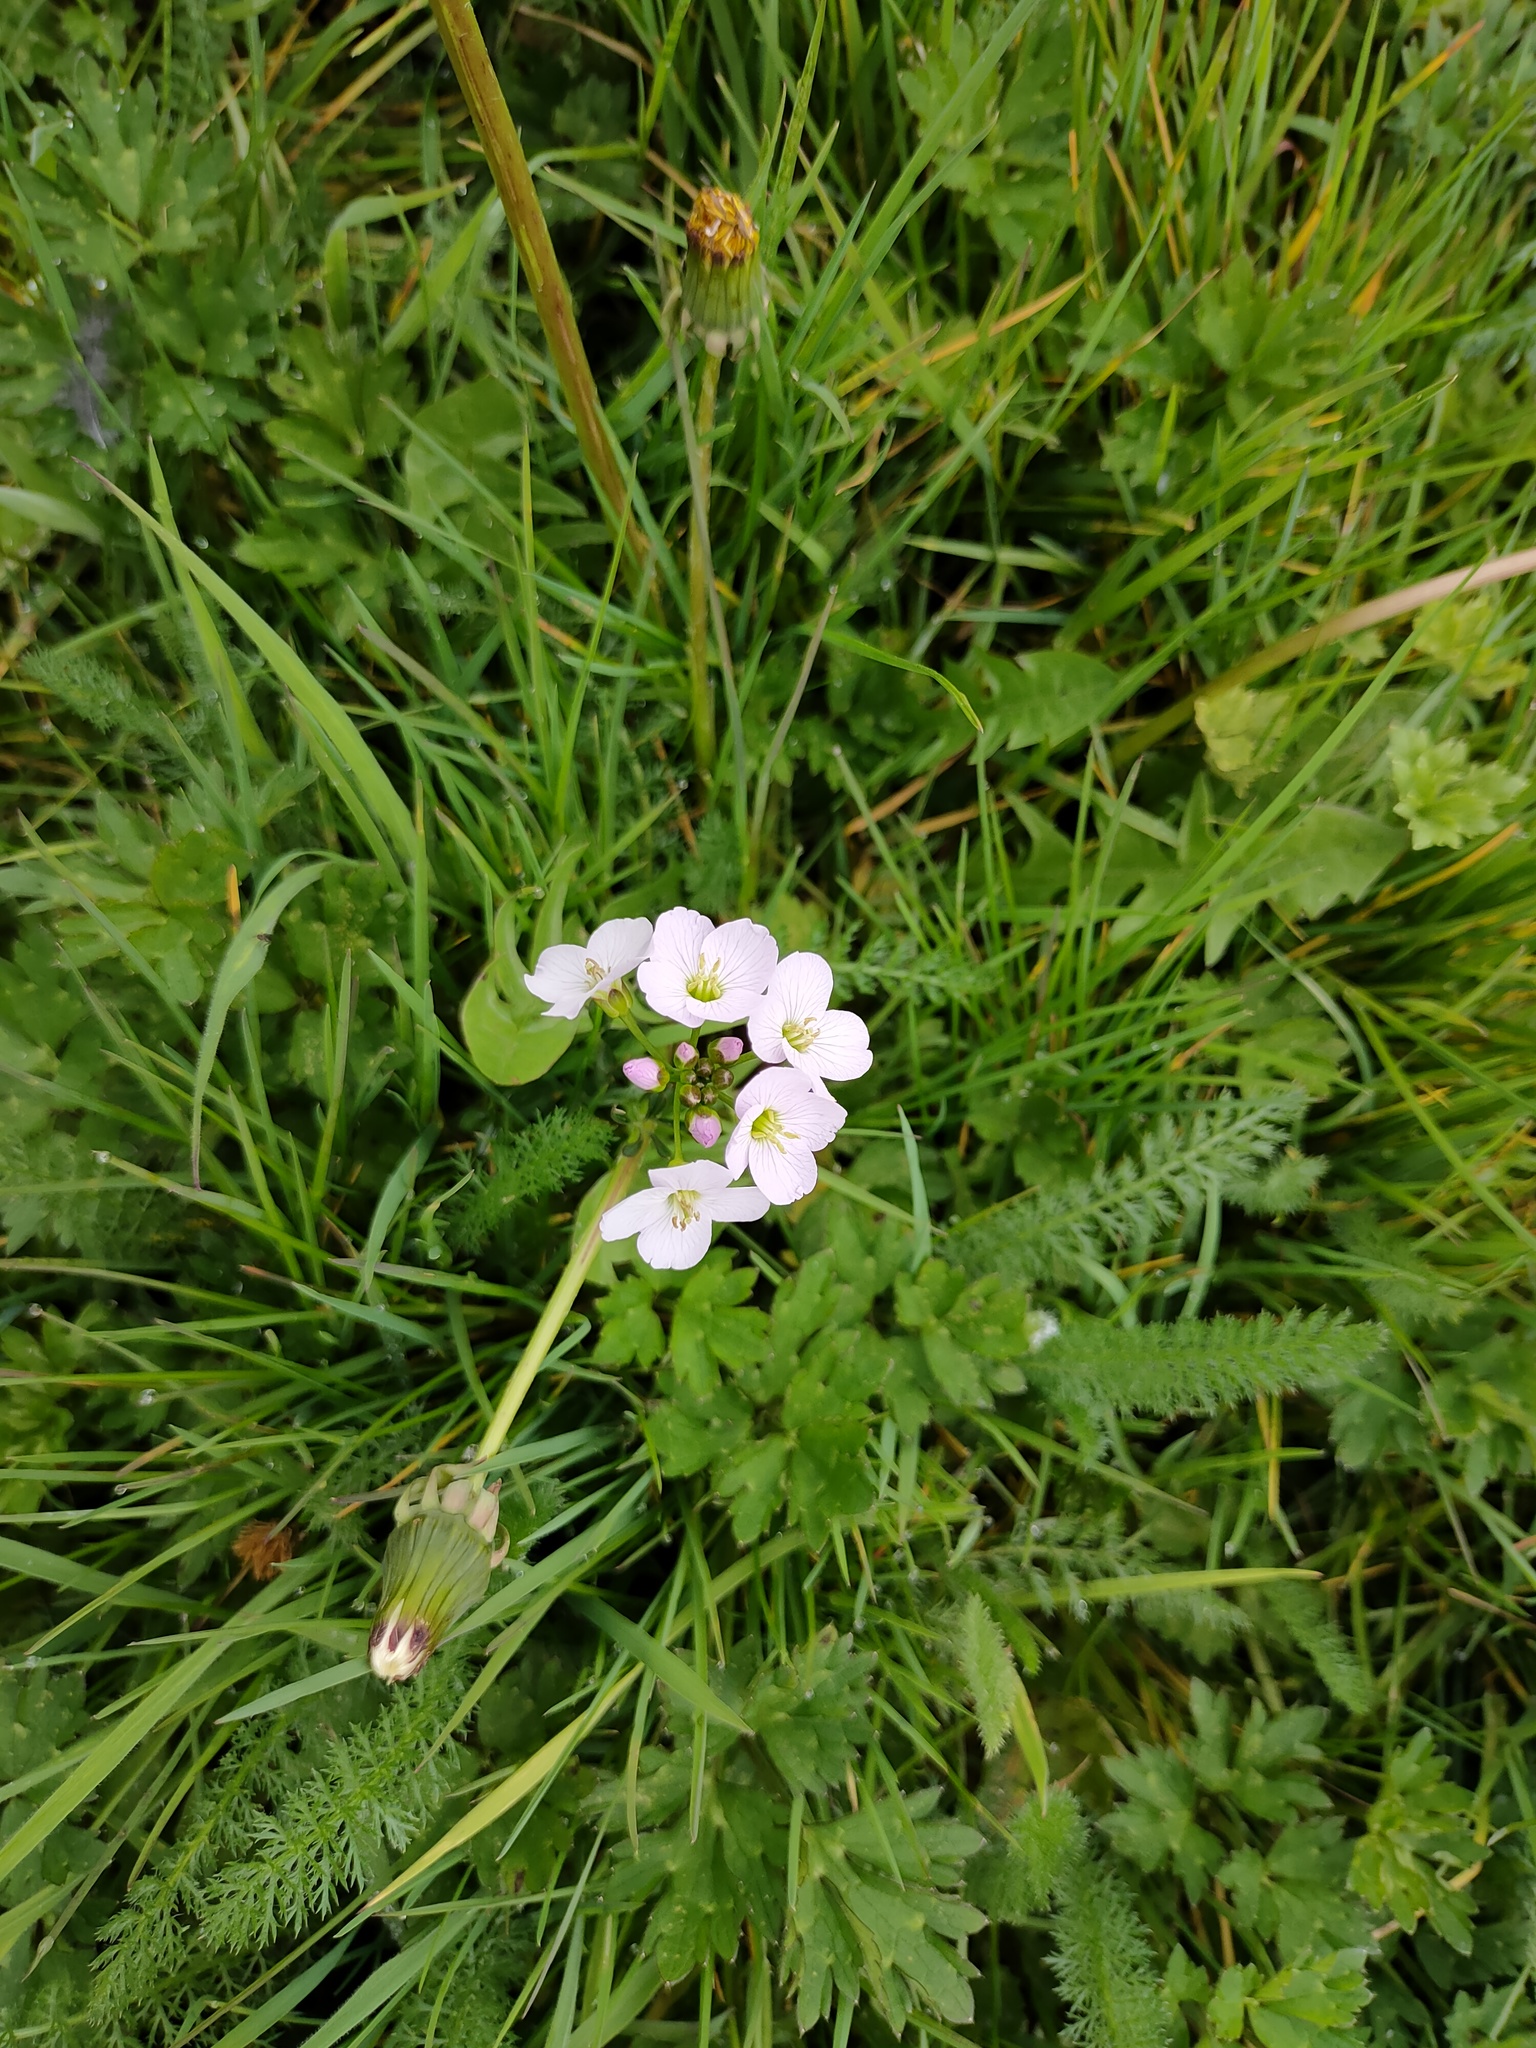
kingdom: Plantae
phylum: Tracheophyta
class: Magnoliopsida
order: Brassicales
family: Brassicaceae
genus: Cardamine
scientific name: Cardamine pratensis
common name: Cuckoo flower
